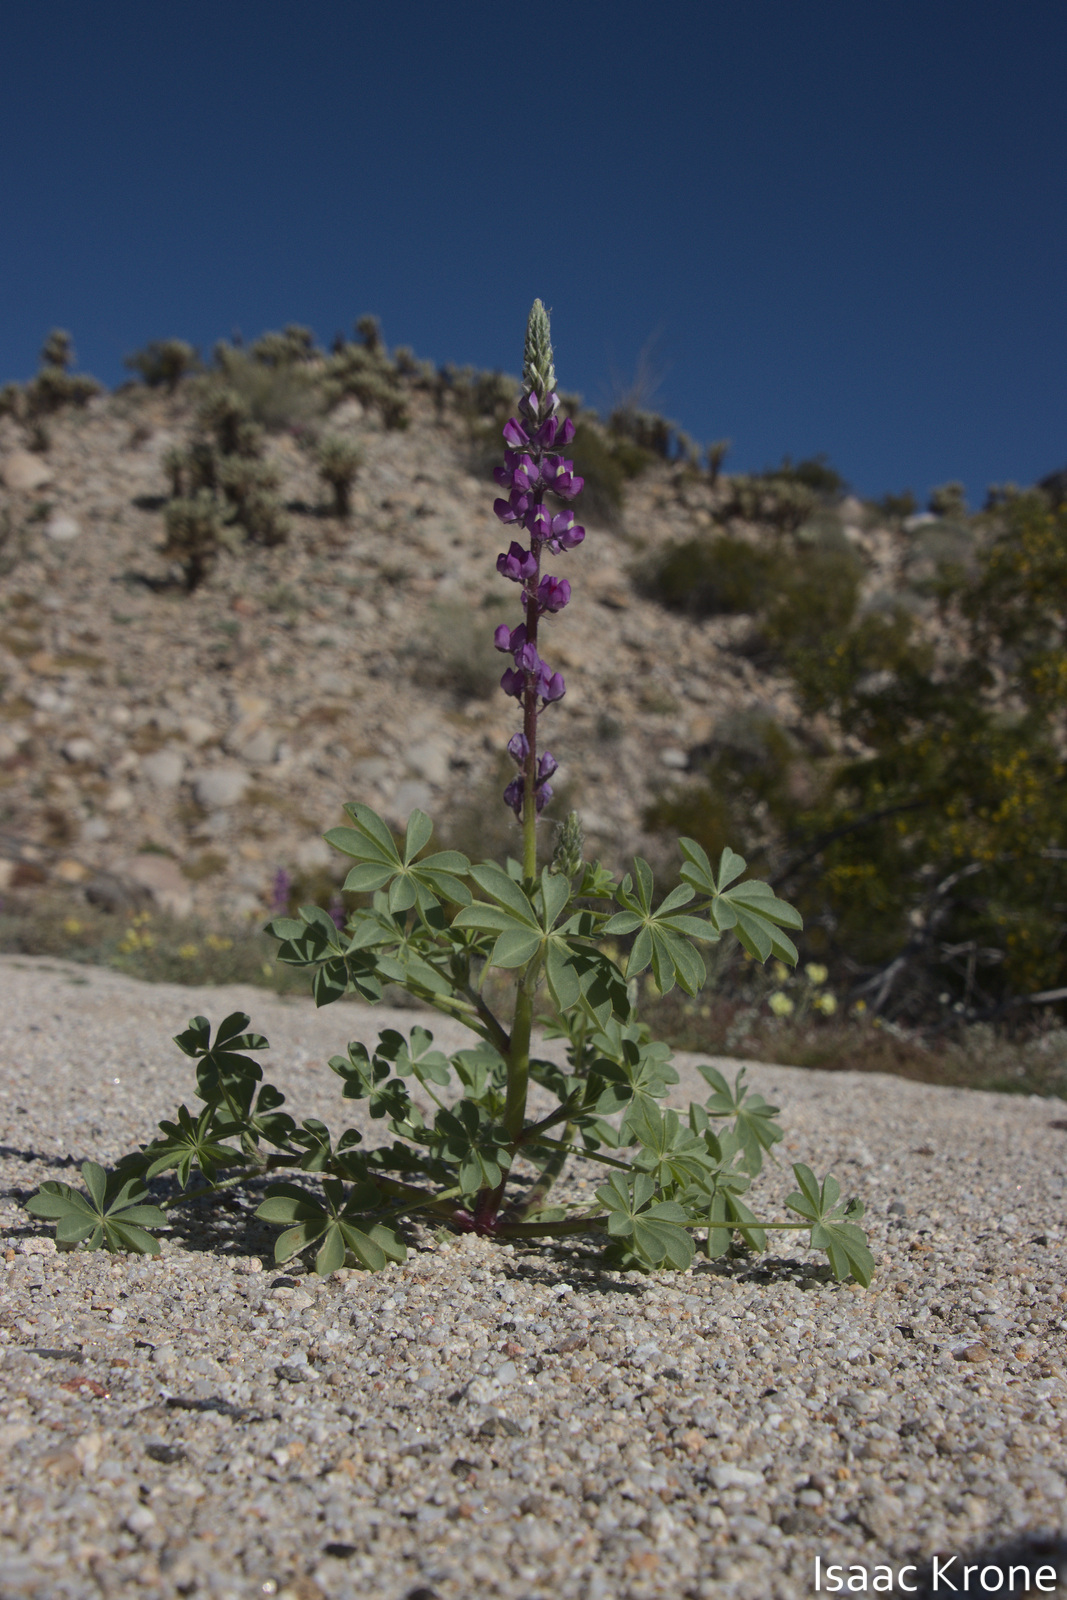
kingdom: Plantae
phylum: Tracheophyta
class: Magnoliopsida
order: Fabales
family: Fabaceae
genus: Lupinus
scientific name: Lupinus arizonicus
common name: Arizona lupine
